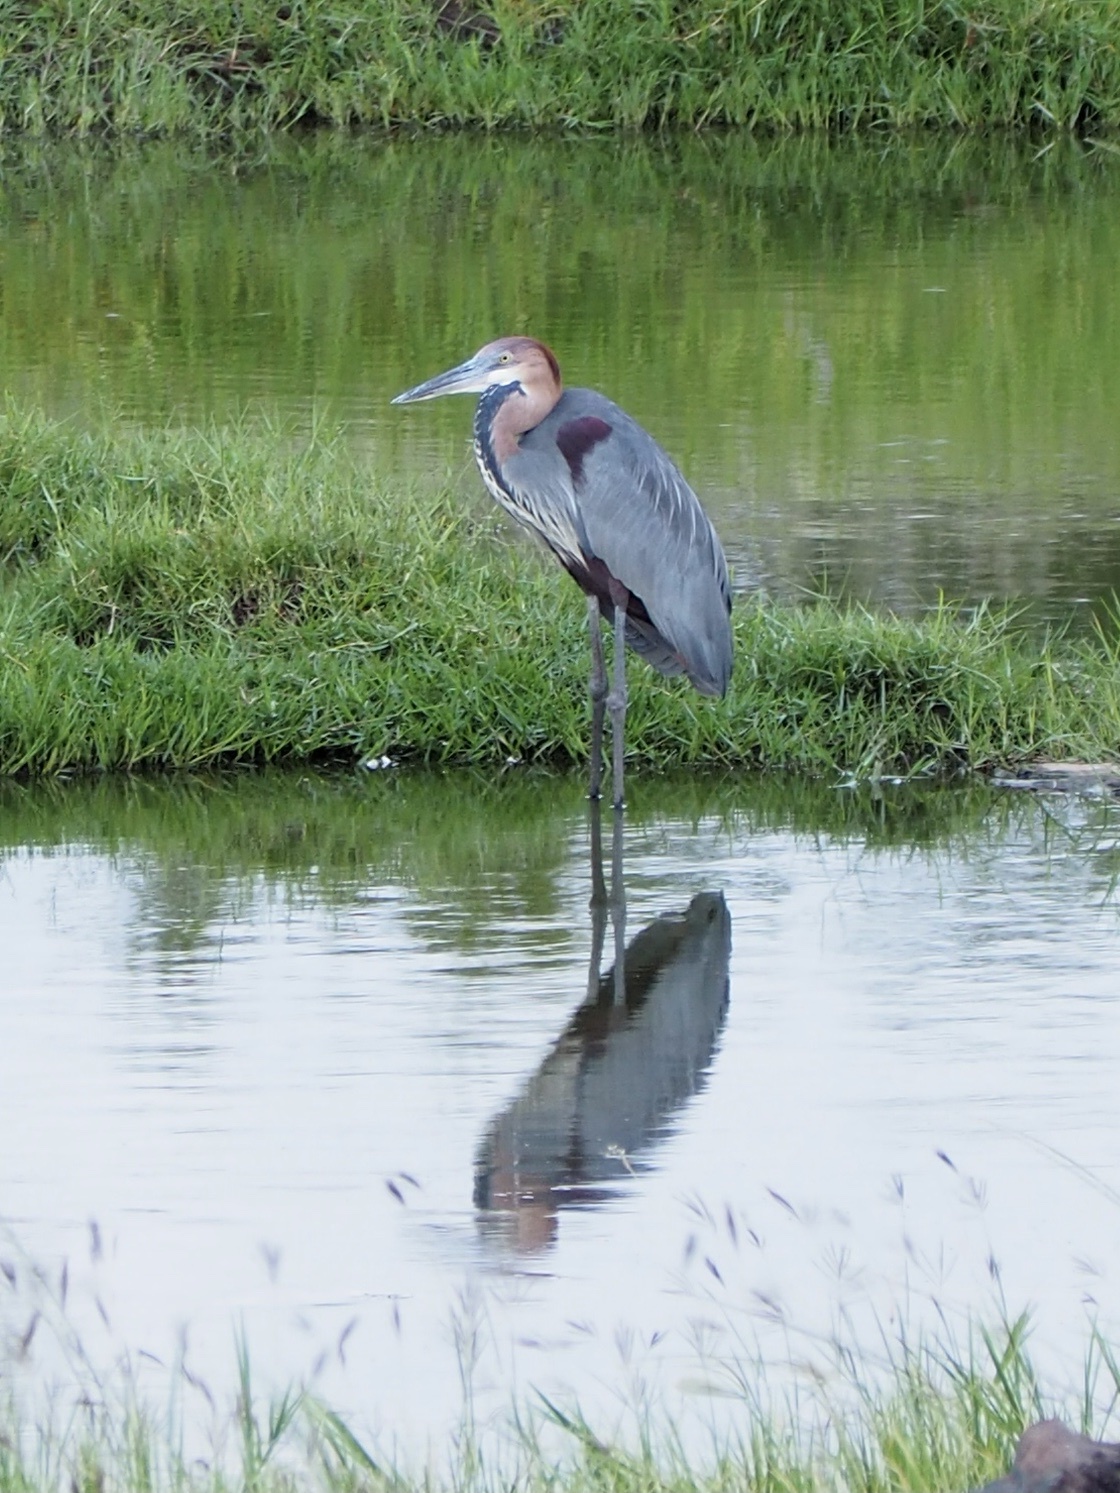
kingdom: Animalia
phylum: Chordata
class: Aves
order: Pelecaniformes
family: Ardeidae
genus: Ardea
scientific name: Ardea goliath
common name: Goliath heron
